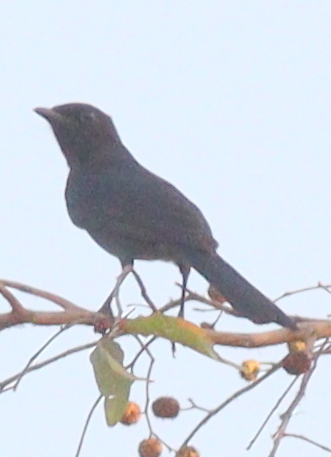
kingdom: Animalia
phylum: Chordata
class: Aves
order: Passeriformes
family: Muscicapidae
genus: Melaenornis
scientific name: Melaenornis edolioides
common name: Northern black flycatcher
